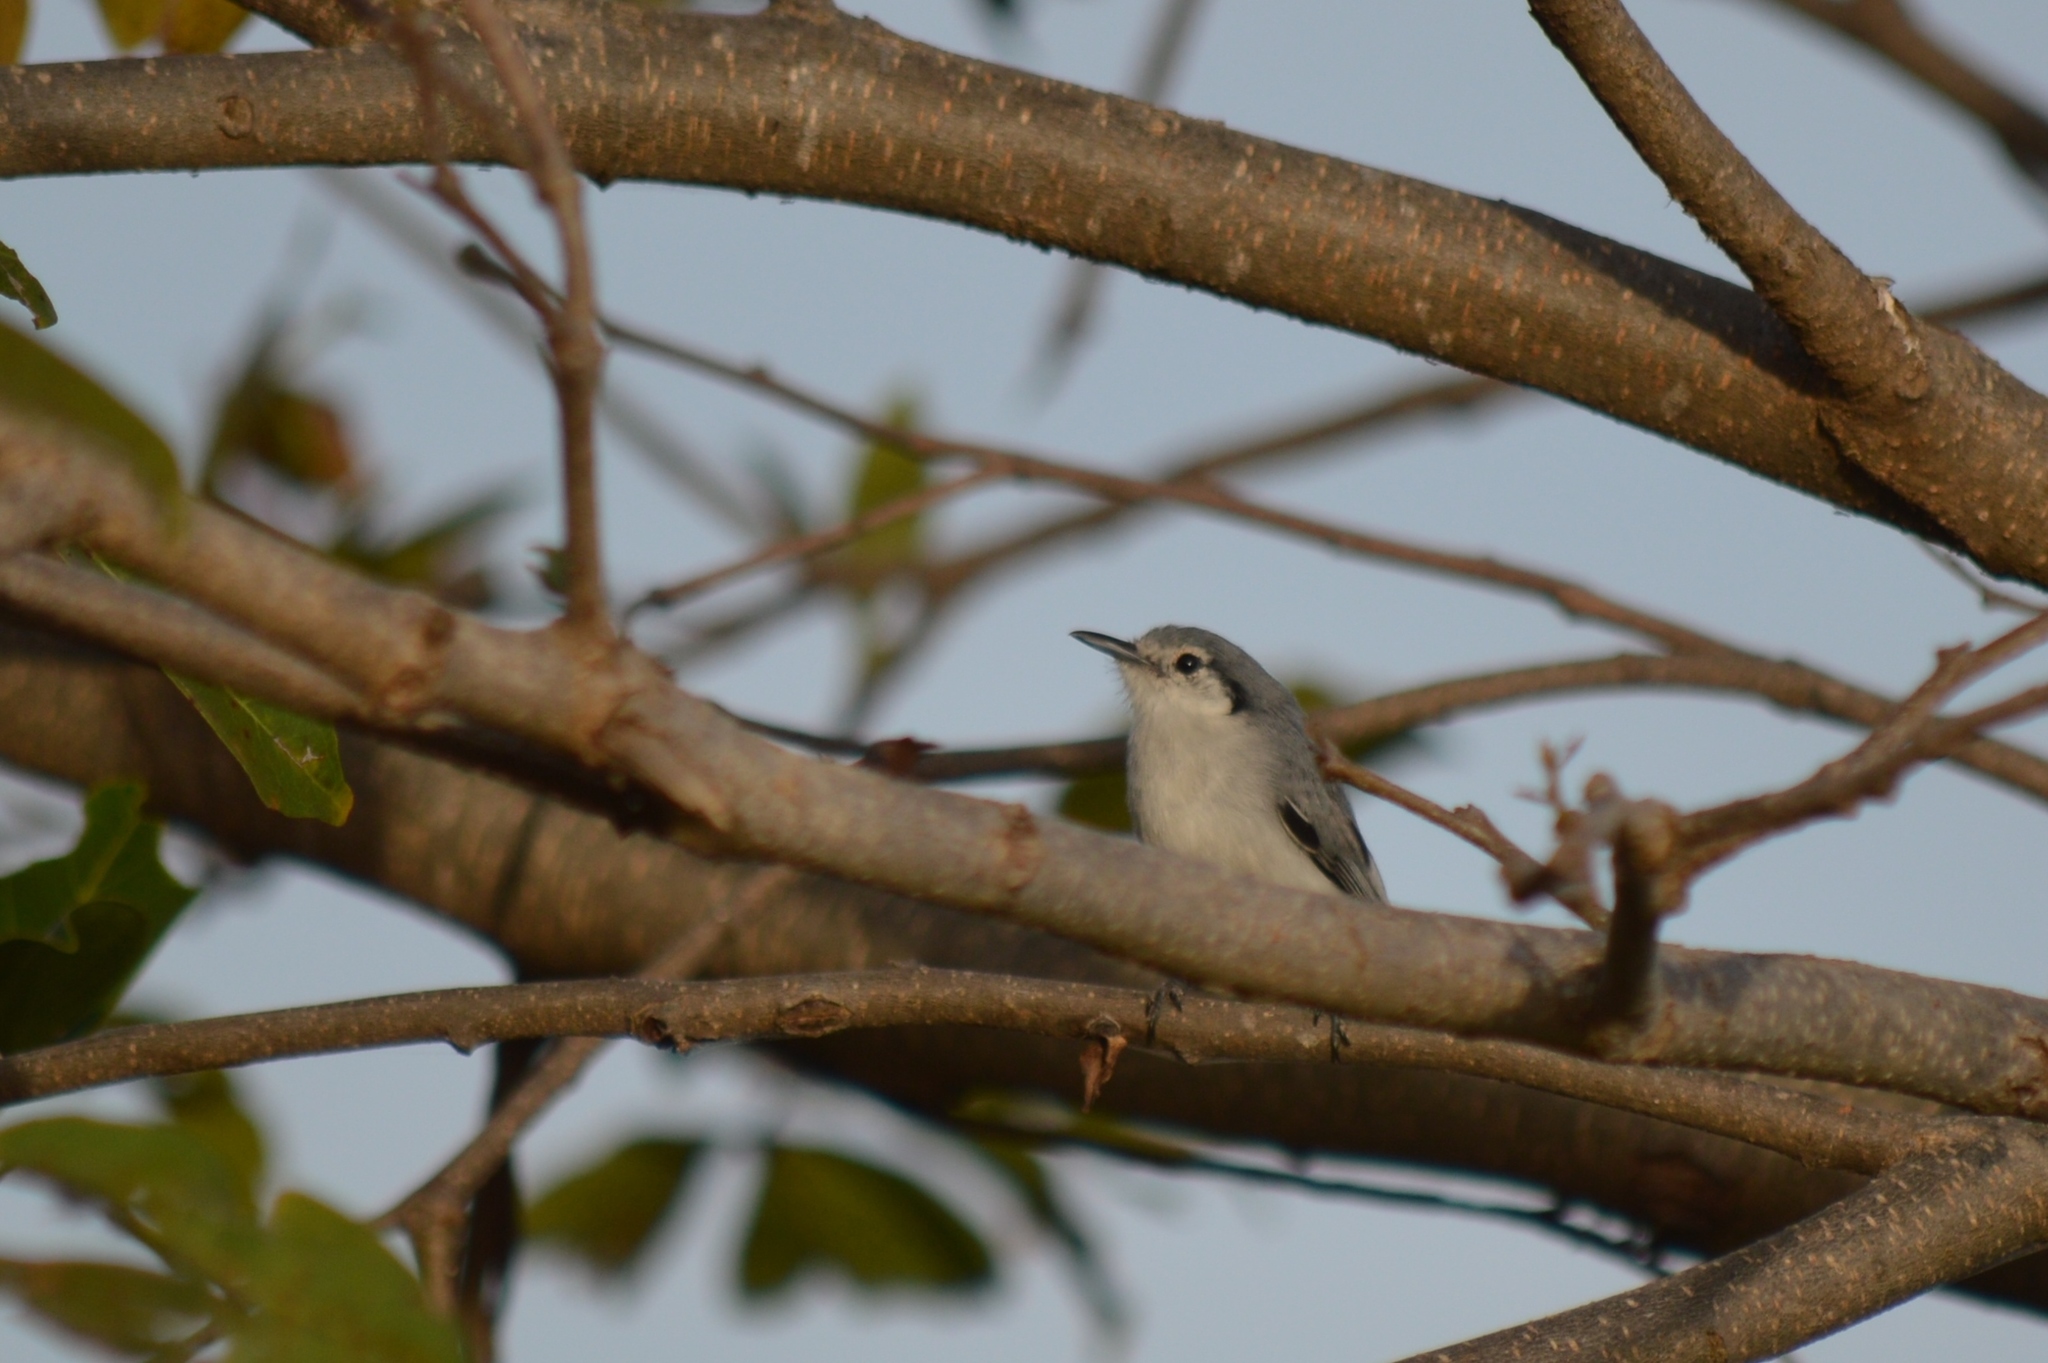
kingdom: Animalia
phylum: Chordata
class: Aves
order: Passeriformes
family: Polioptilidae
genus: Polioptila
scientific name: Polioptila dumicola
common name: Masked gnatcatcher
